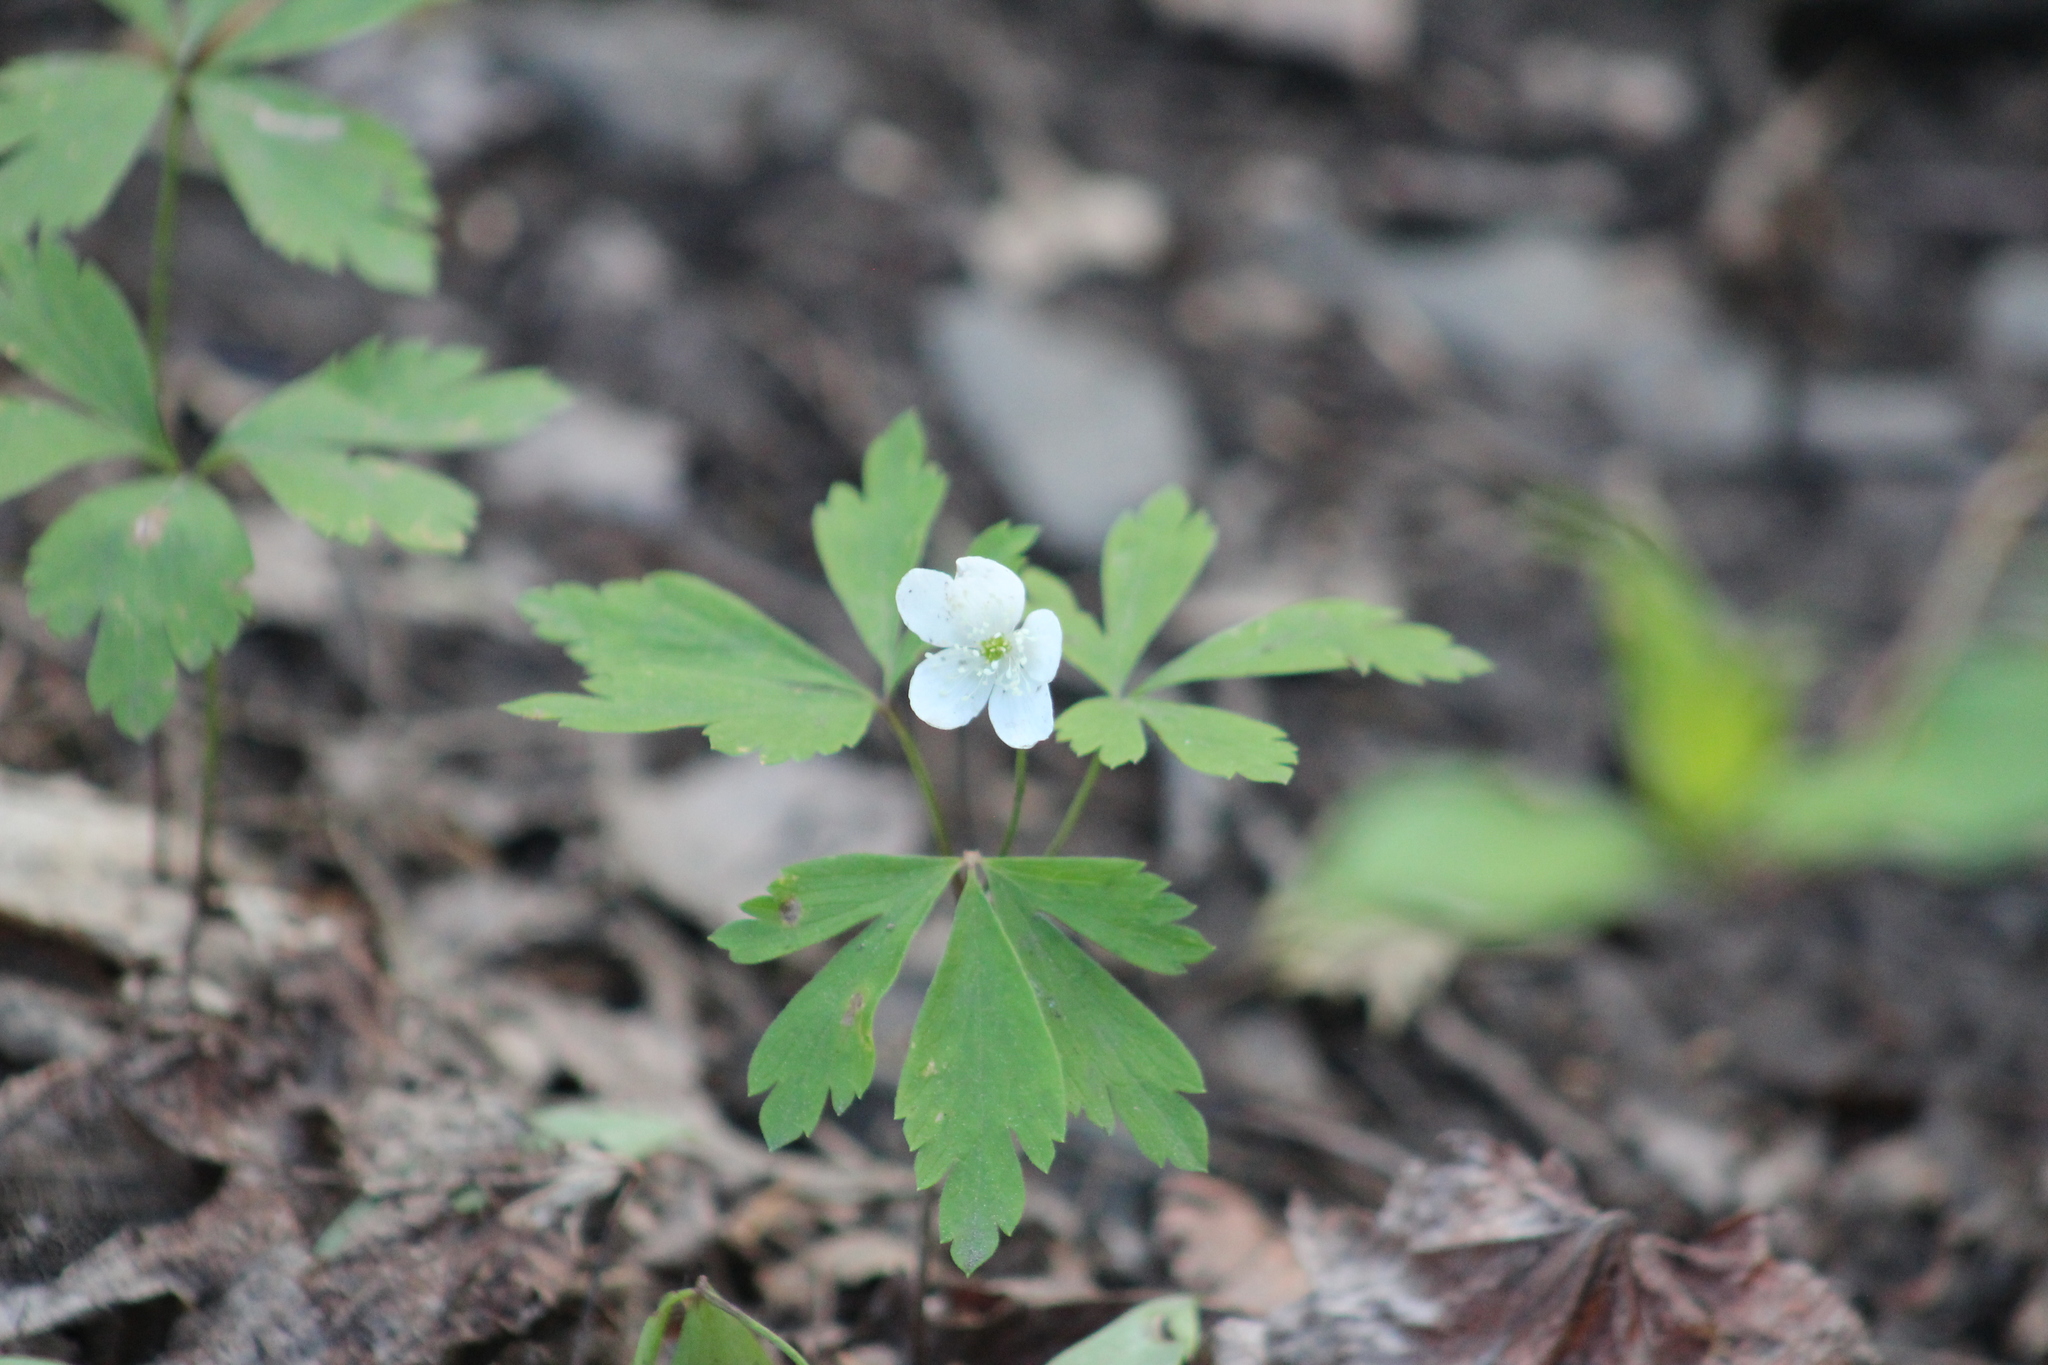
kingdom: Plantae
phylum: Tracheophyta
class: Magnoliopsida
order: Ranunculales
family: Ranunculaceae
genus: Anemone
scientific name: Anemone quinquefolia
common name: Wood anemone
